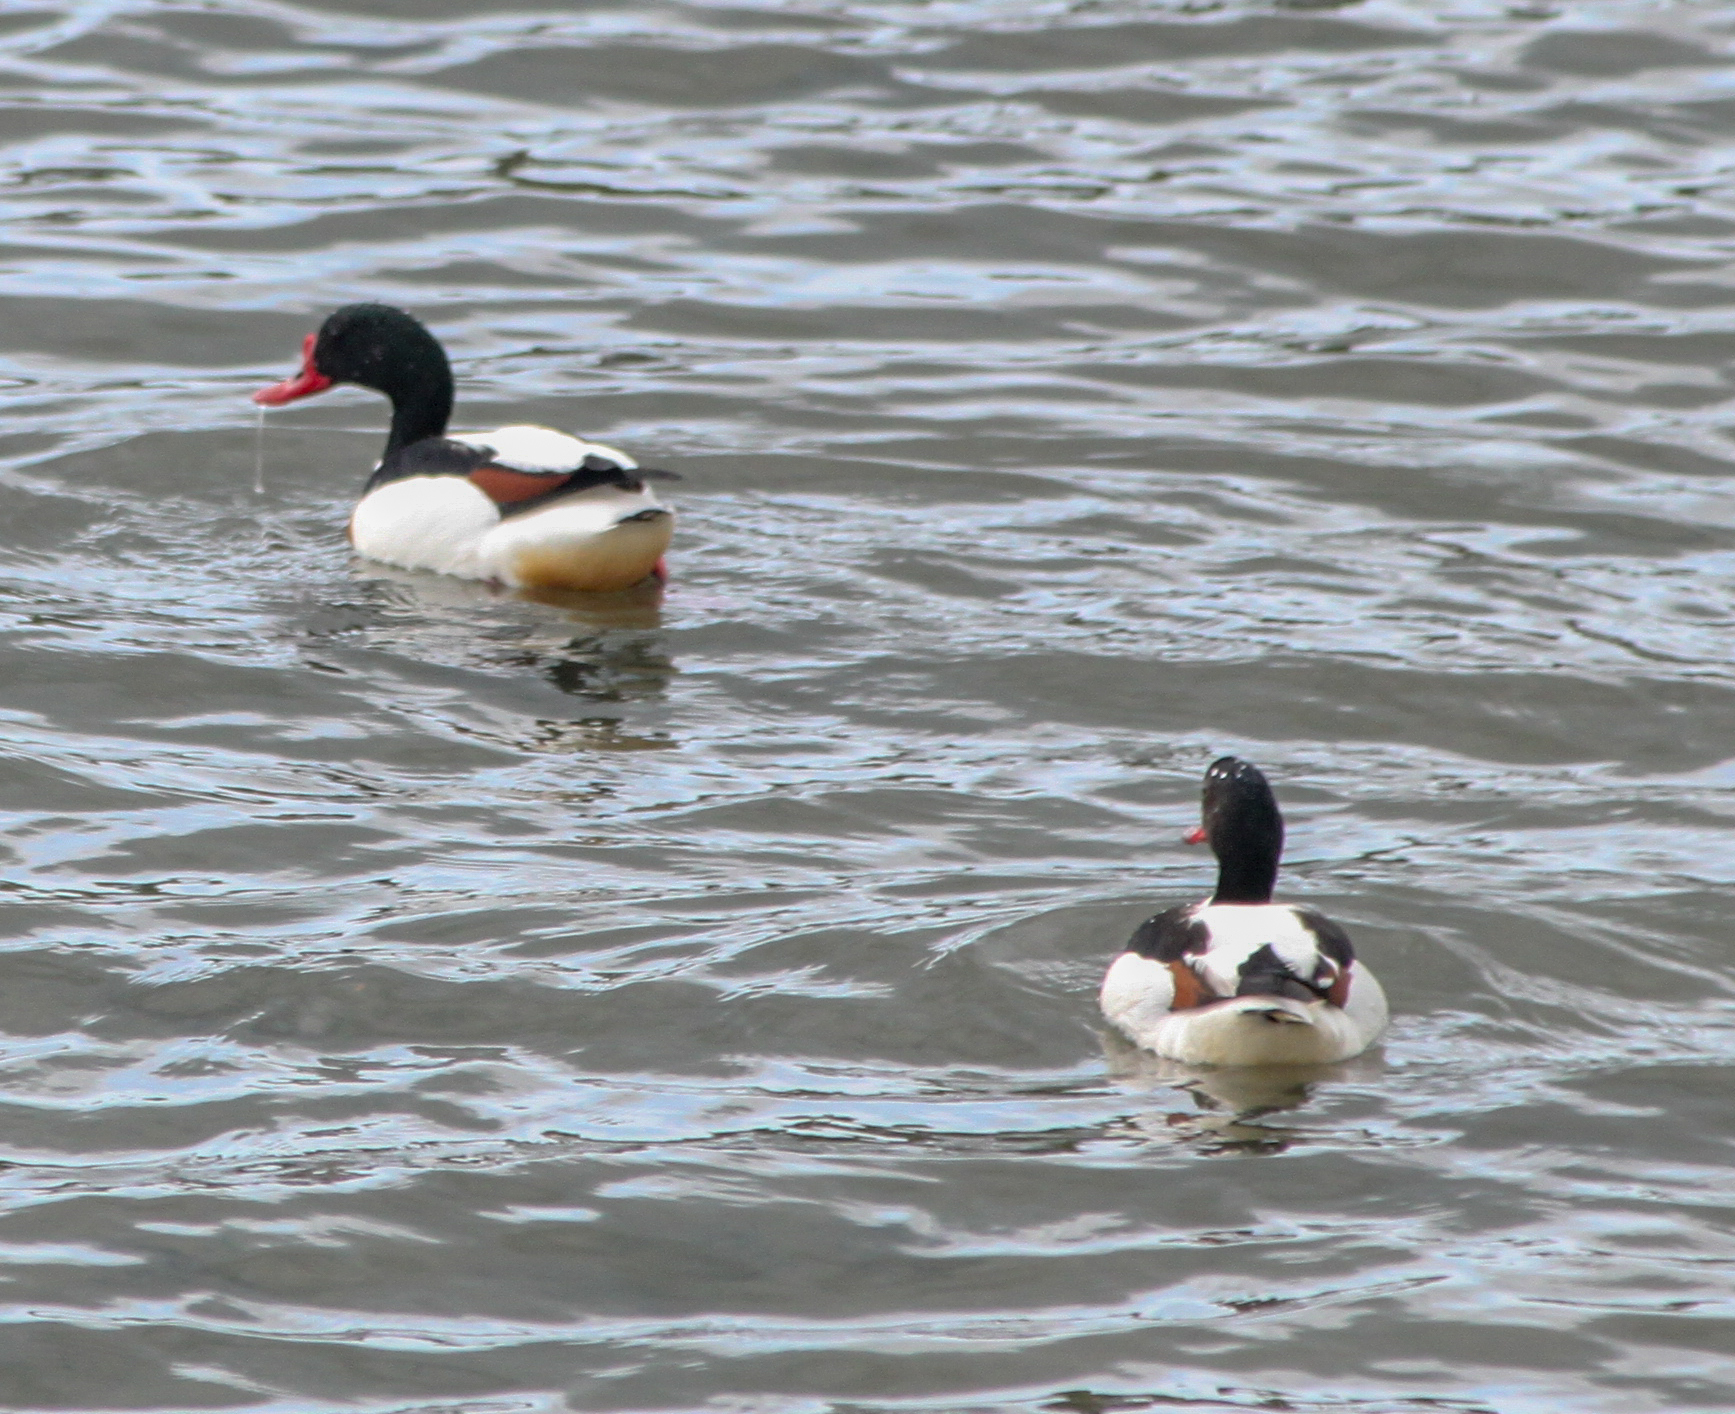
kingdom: Animalia
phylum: Chordata
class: Aves
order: Anseriformes
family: Anatidae
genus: Tadorna
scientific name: Tadorna tadorna
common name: Common shelduck
